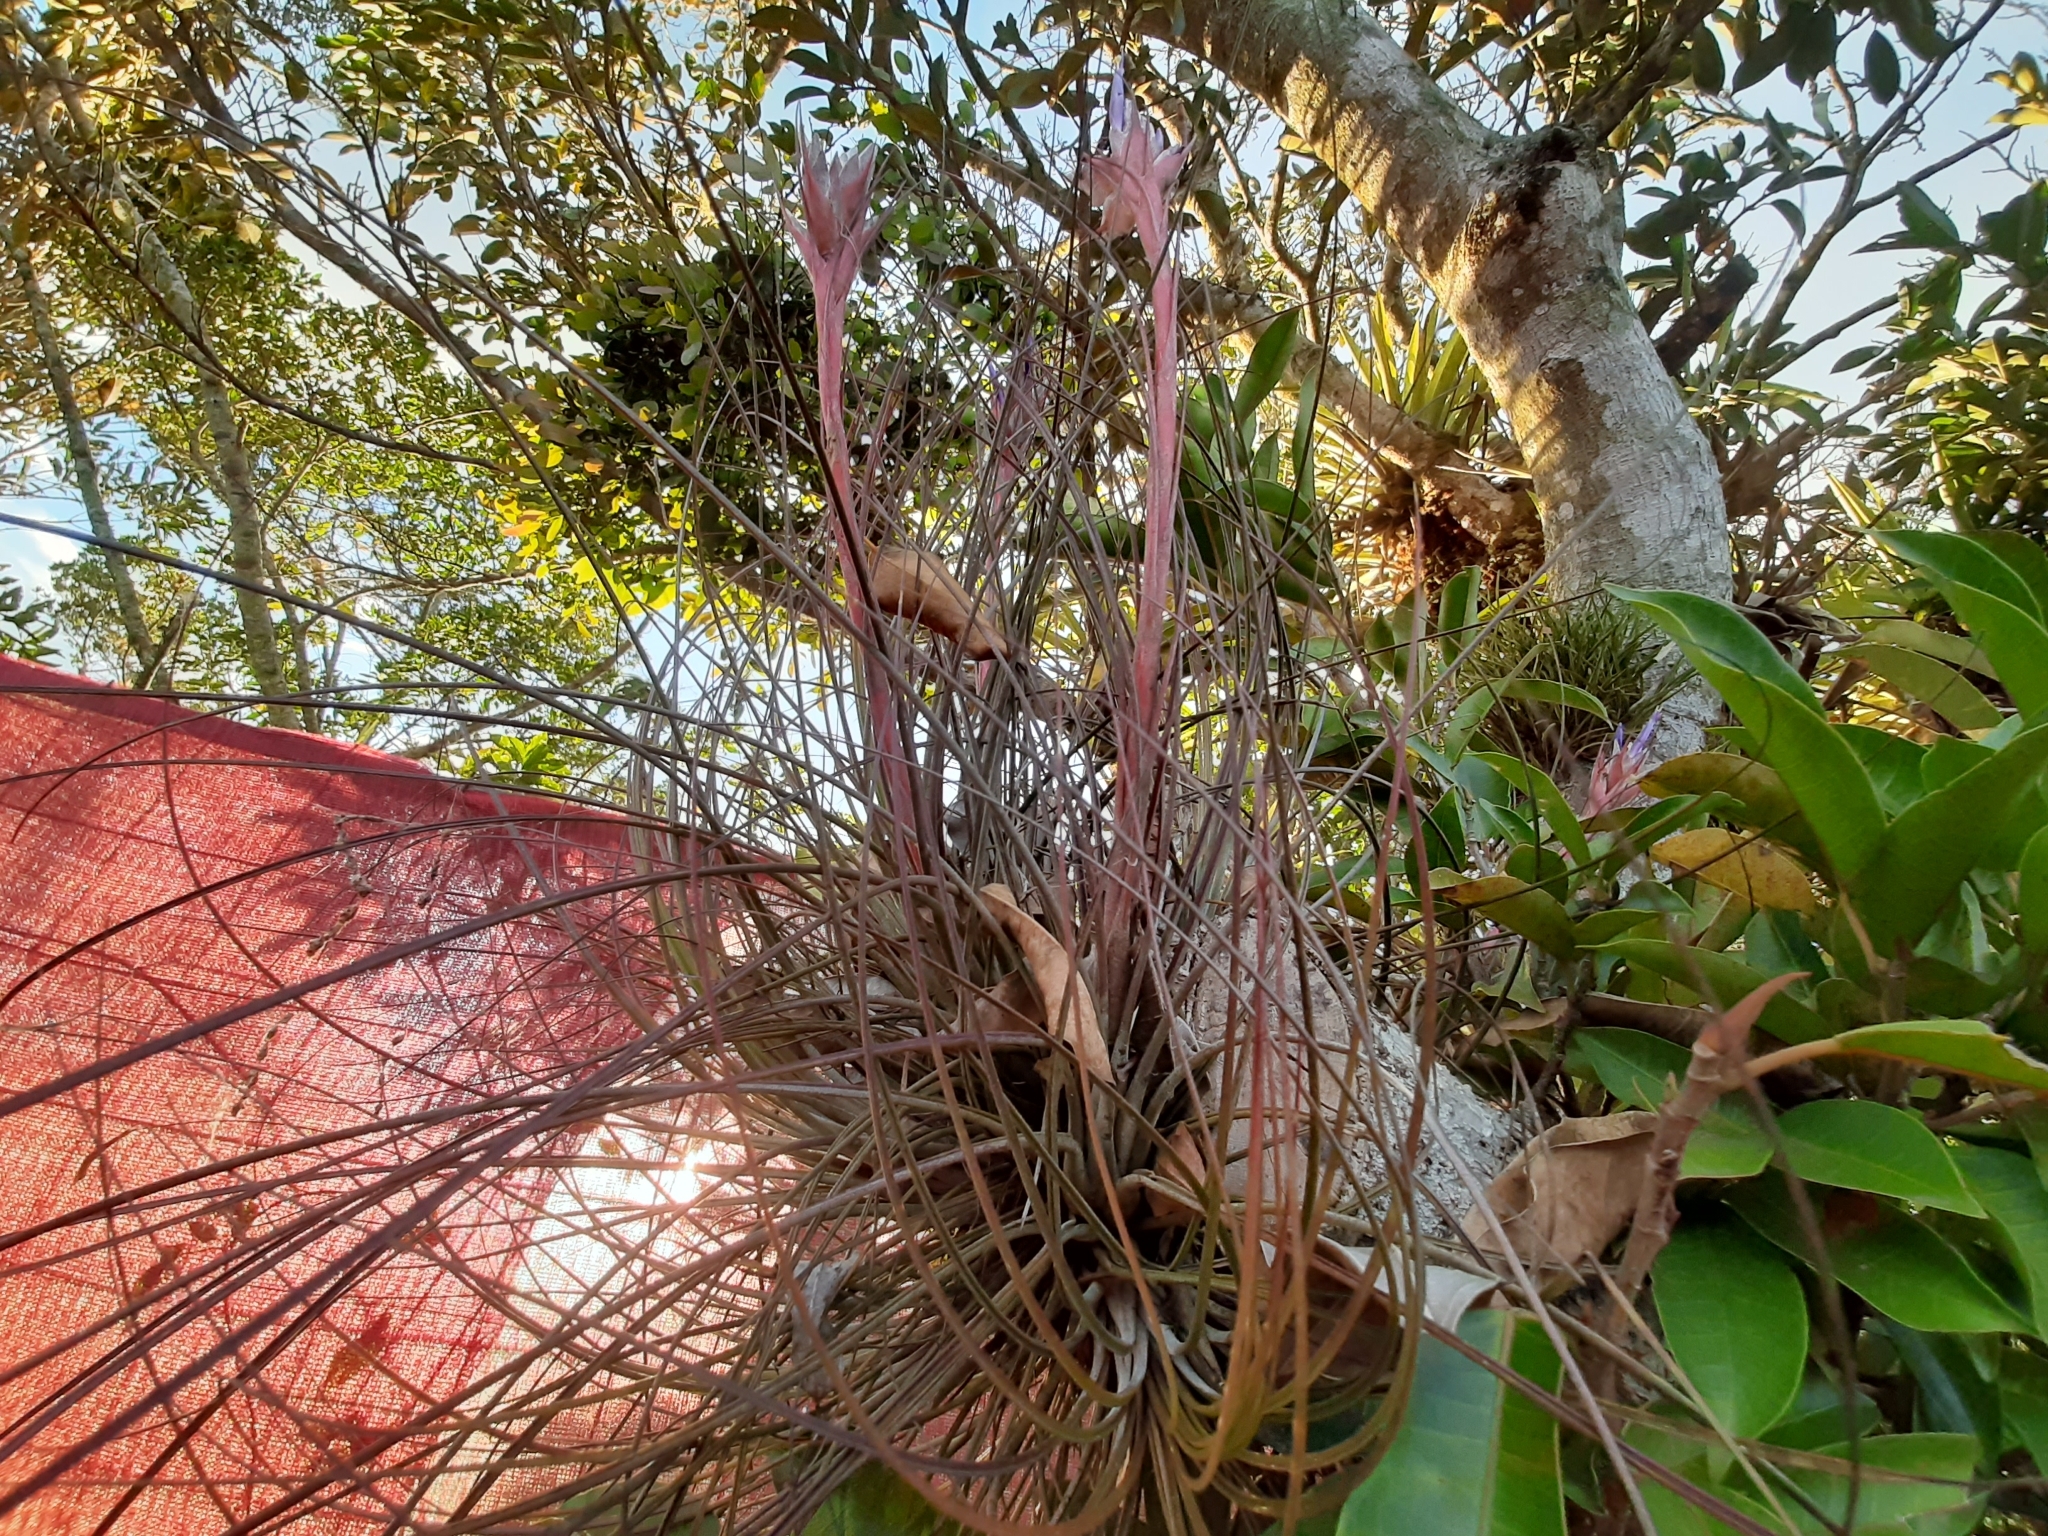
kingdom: Plantae
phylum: Tracheophyta
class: Liliopsida
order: Poales
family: Bromeliaceae
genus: Tillandsia
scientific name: Tillandsia juncea
